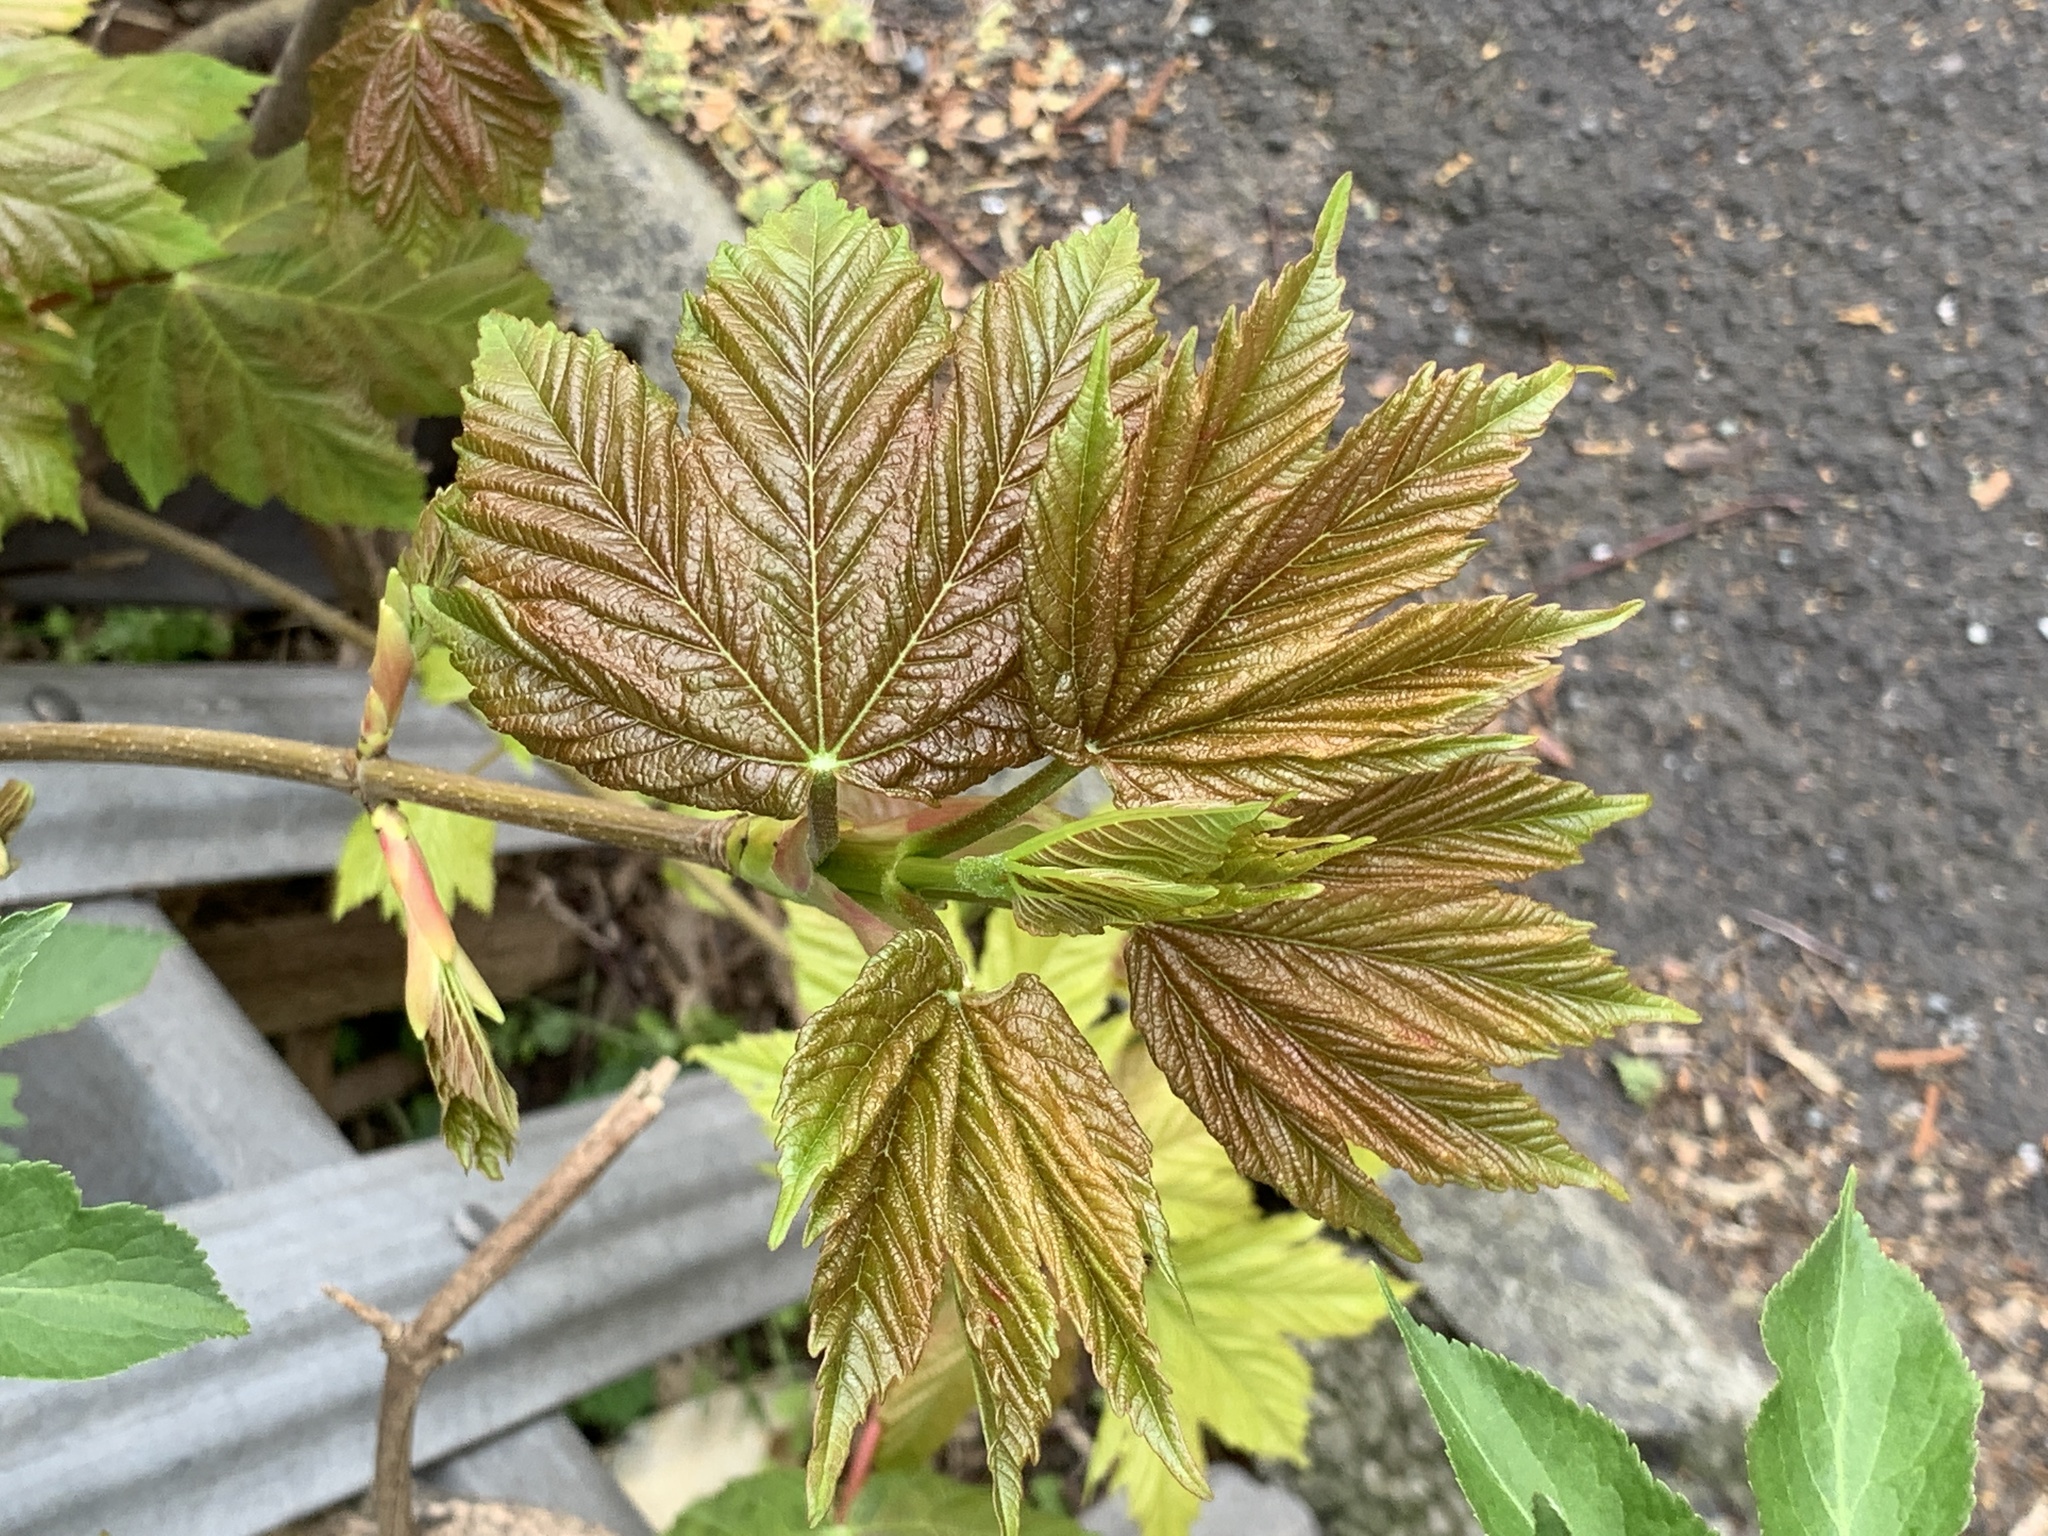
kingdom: Plantae
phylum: Tracheophyta
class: Magnoliopsida
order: Sapindales
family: Sapindaceae
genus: Acer
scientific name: Acer pseudoplatanus
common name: Sycamore
